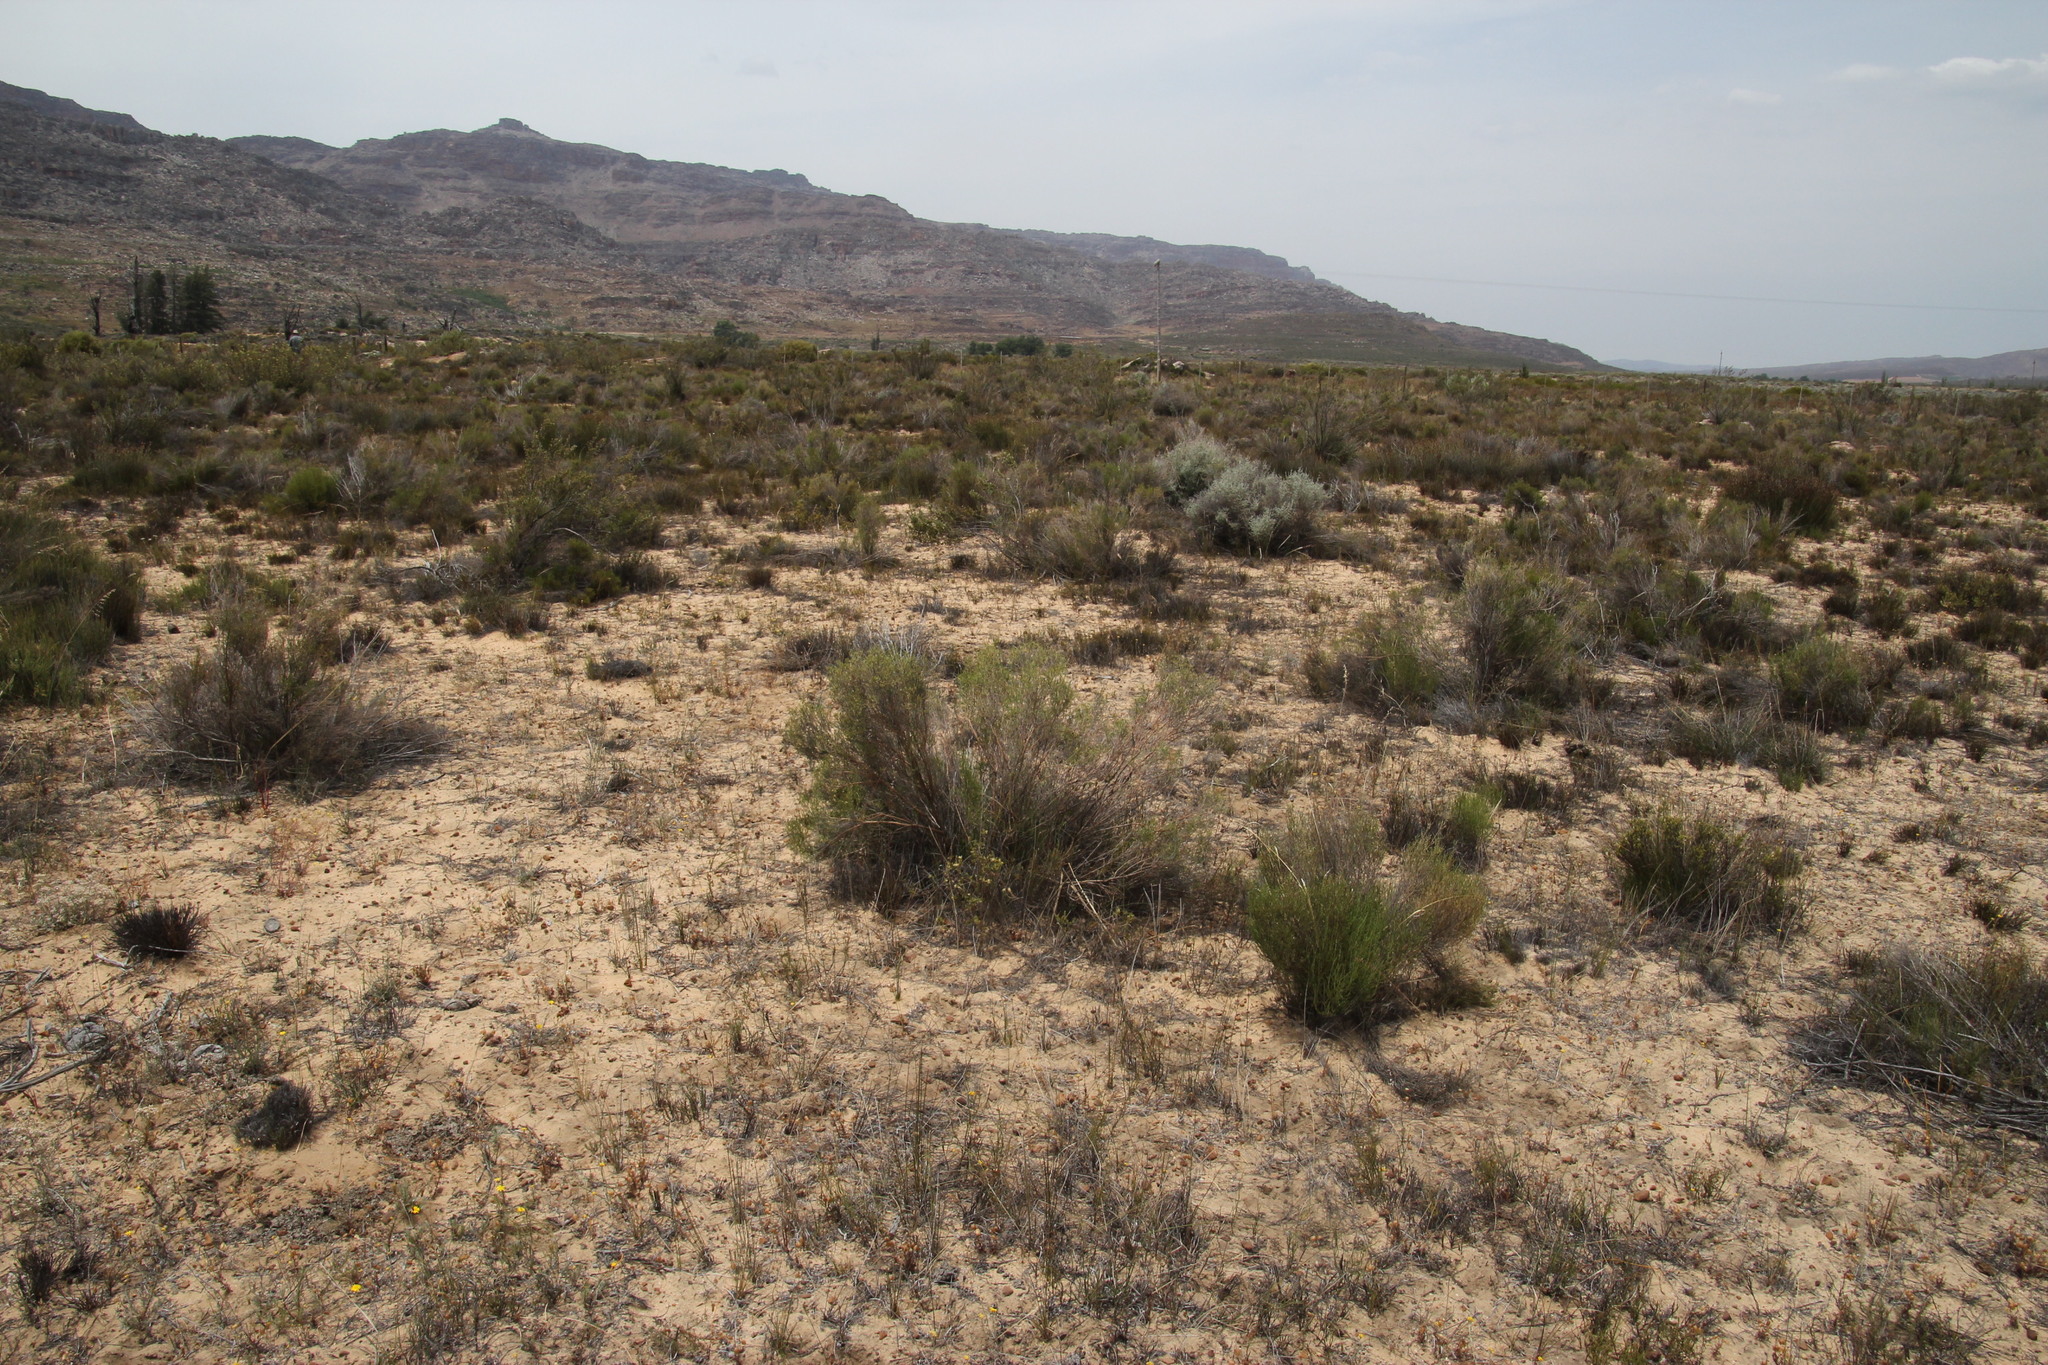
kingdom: Plantae
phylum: Tracheophyta
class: Magnoliopsida
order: Asterales
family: Asteraceae
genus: Dicerothamnus
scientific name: Dicerothamnus rhinocerotis
